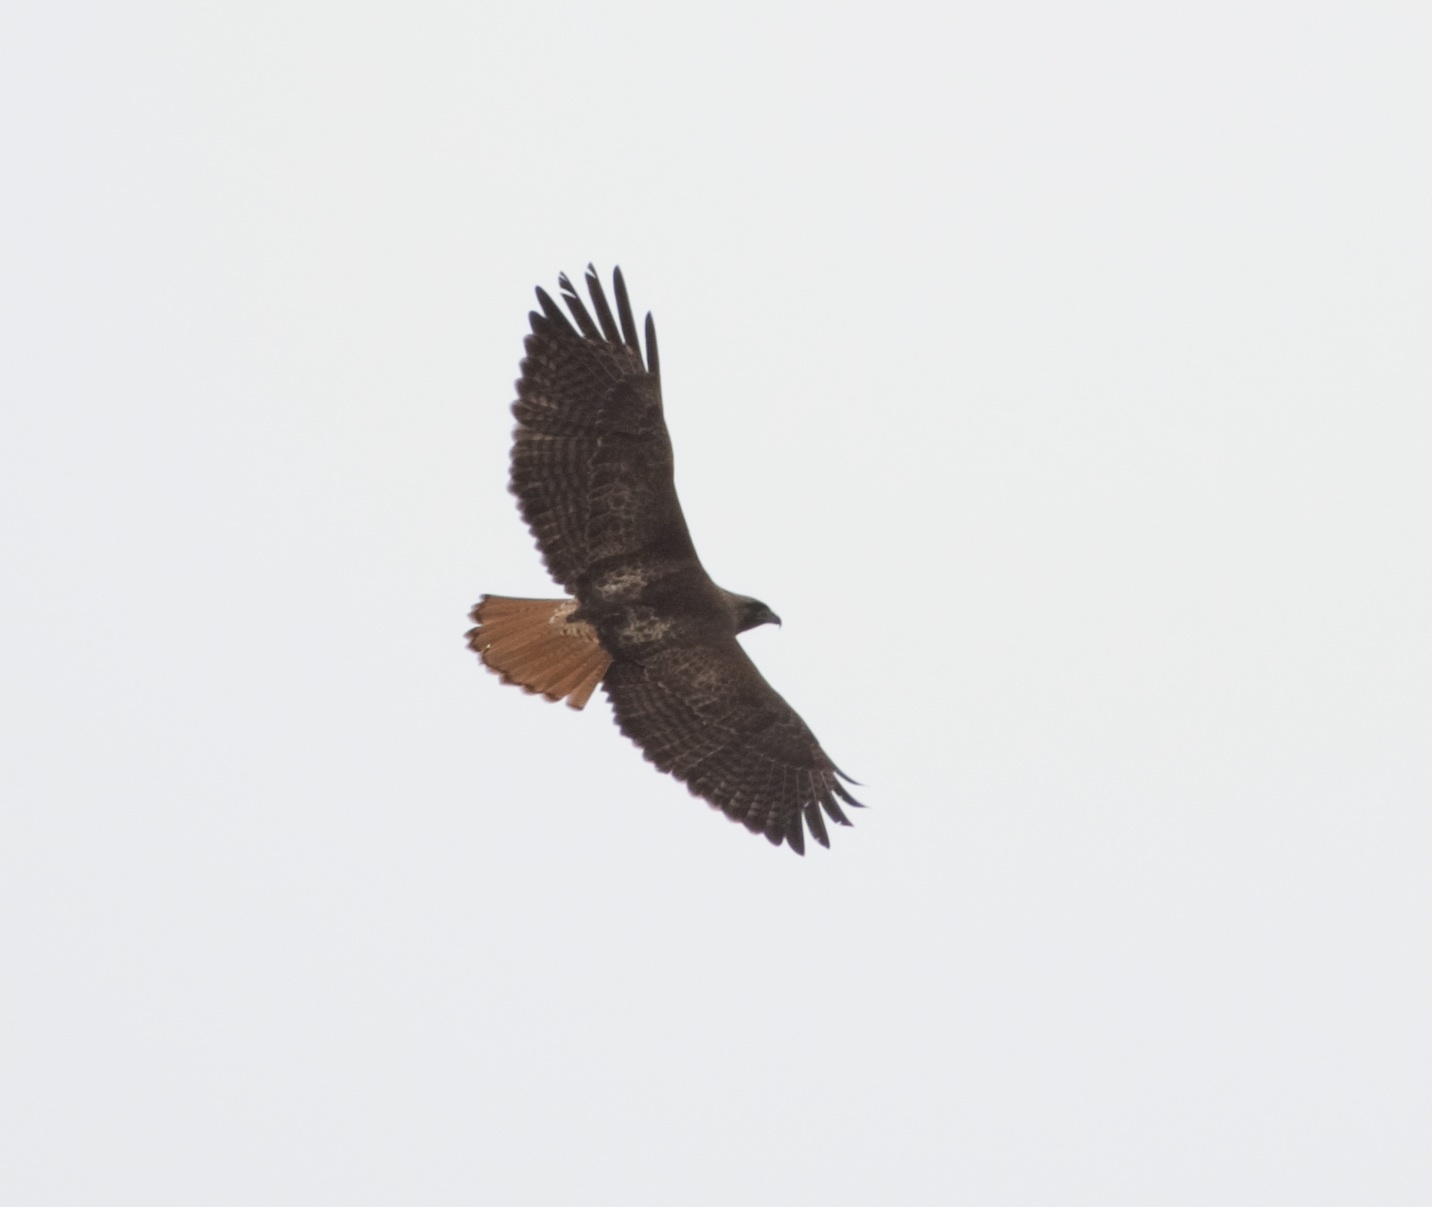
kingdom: Animalia
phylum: Chordata
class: Aves
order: Accipitriformes
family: Accipitridae
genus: Buteo
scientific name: Buteo jamaicensis
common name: Red-tailed hawk
